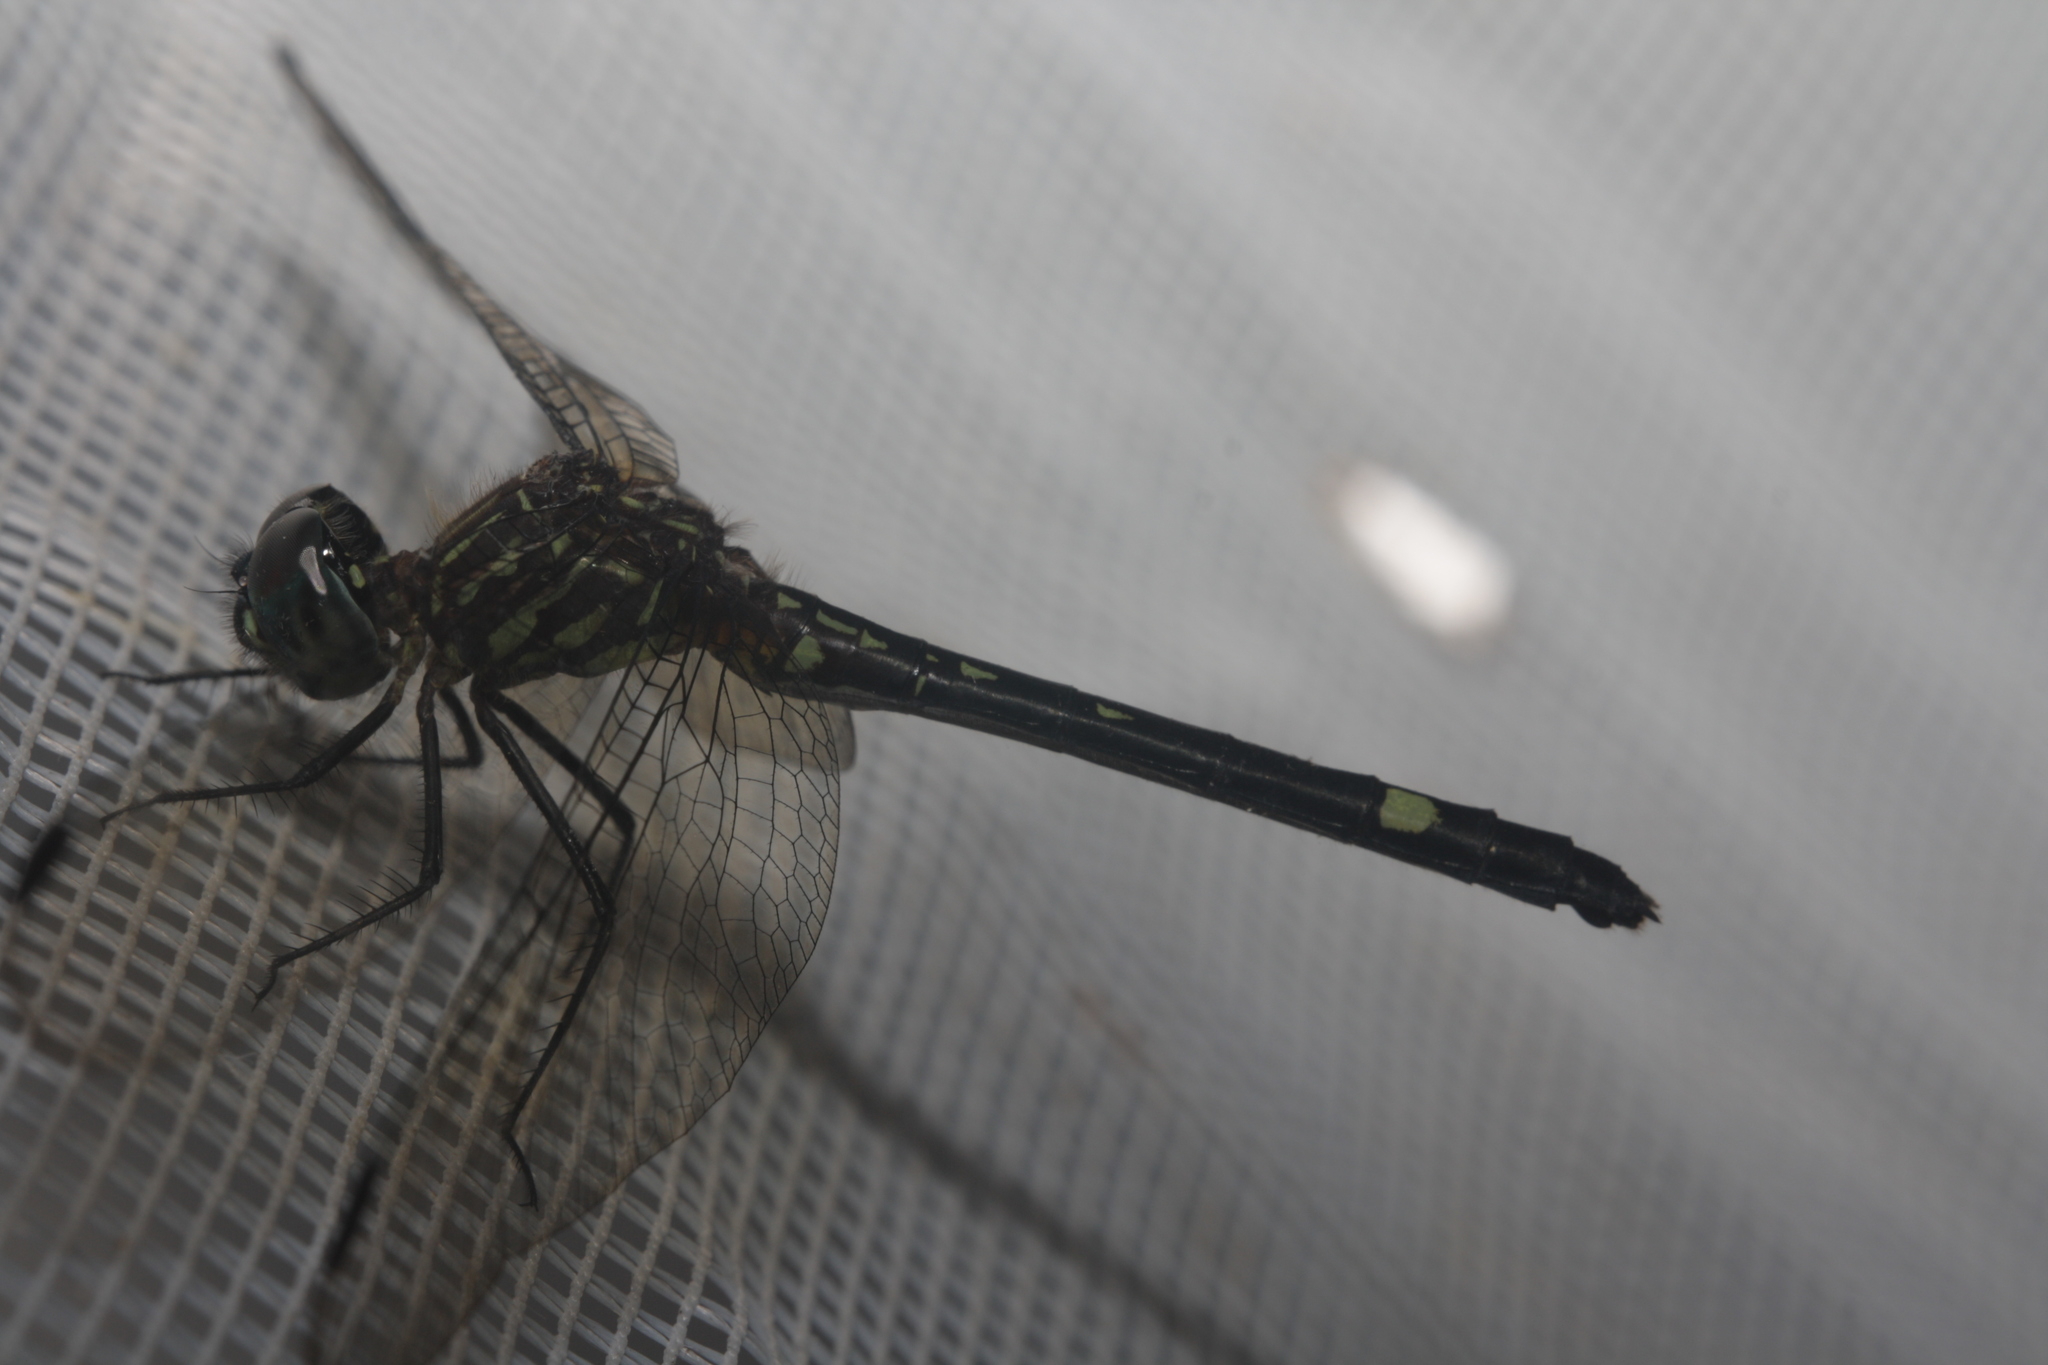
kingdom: Animalia
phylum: Arthropoda
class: Insecta
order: Odonata
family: Libellulidae
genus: Dythemis
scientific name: Dythemis nigra
